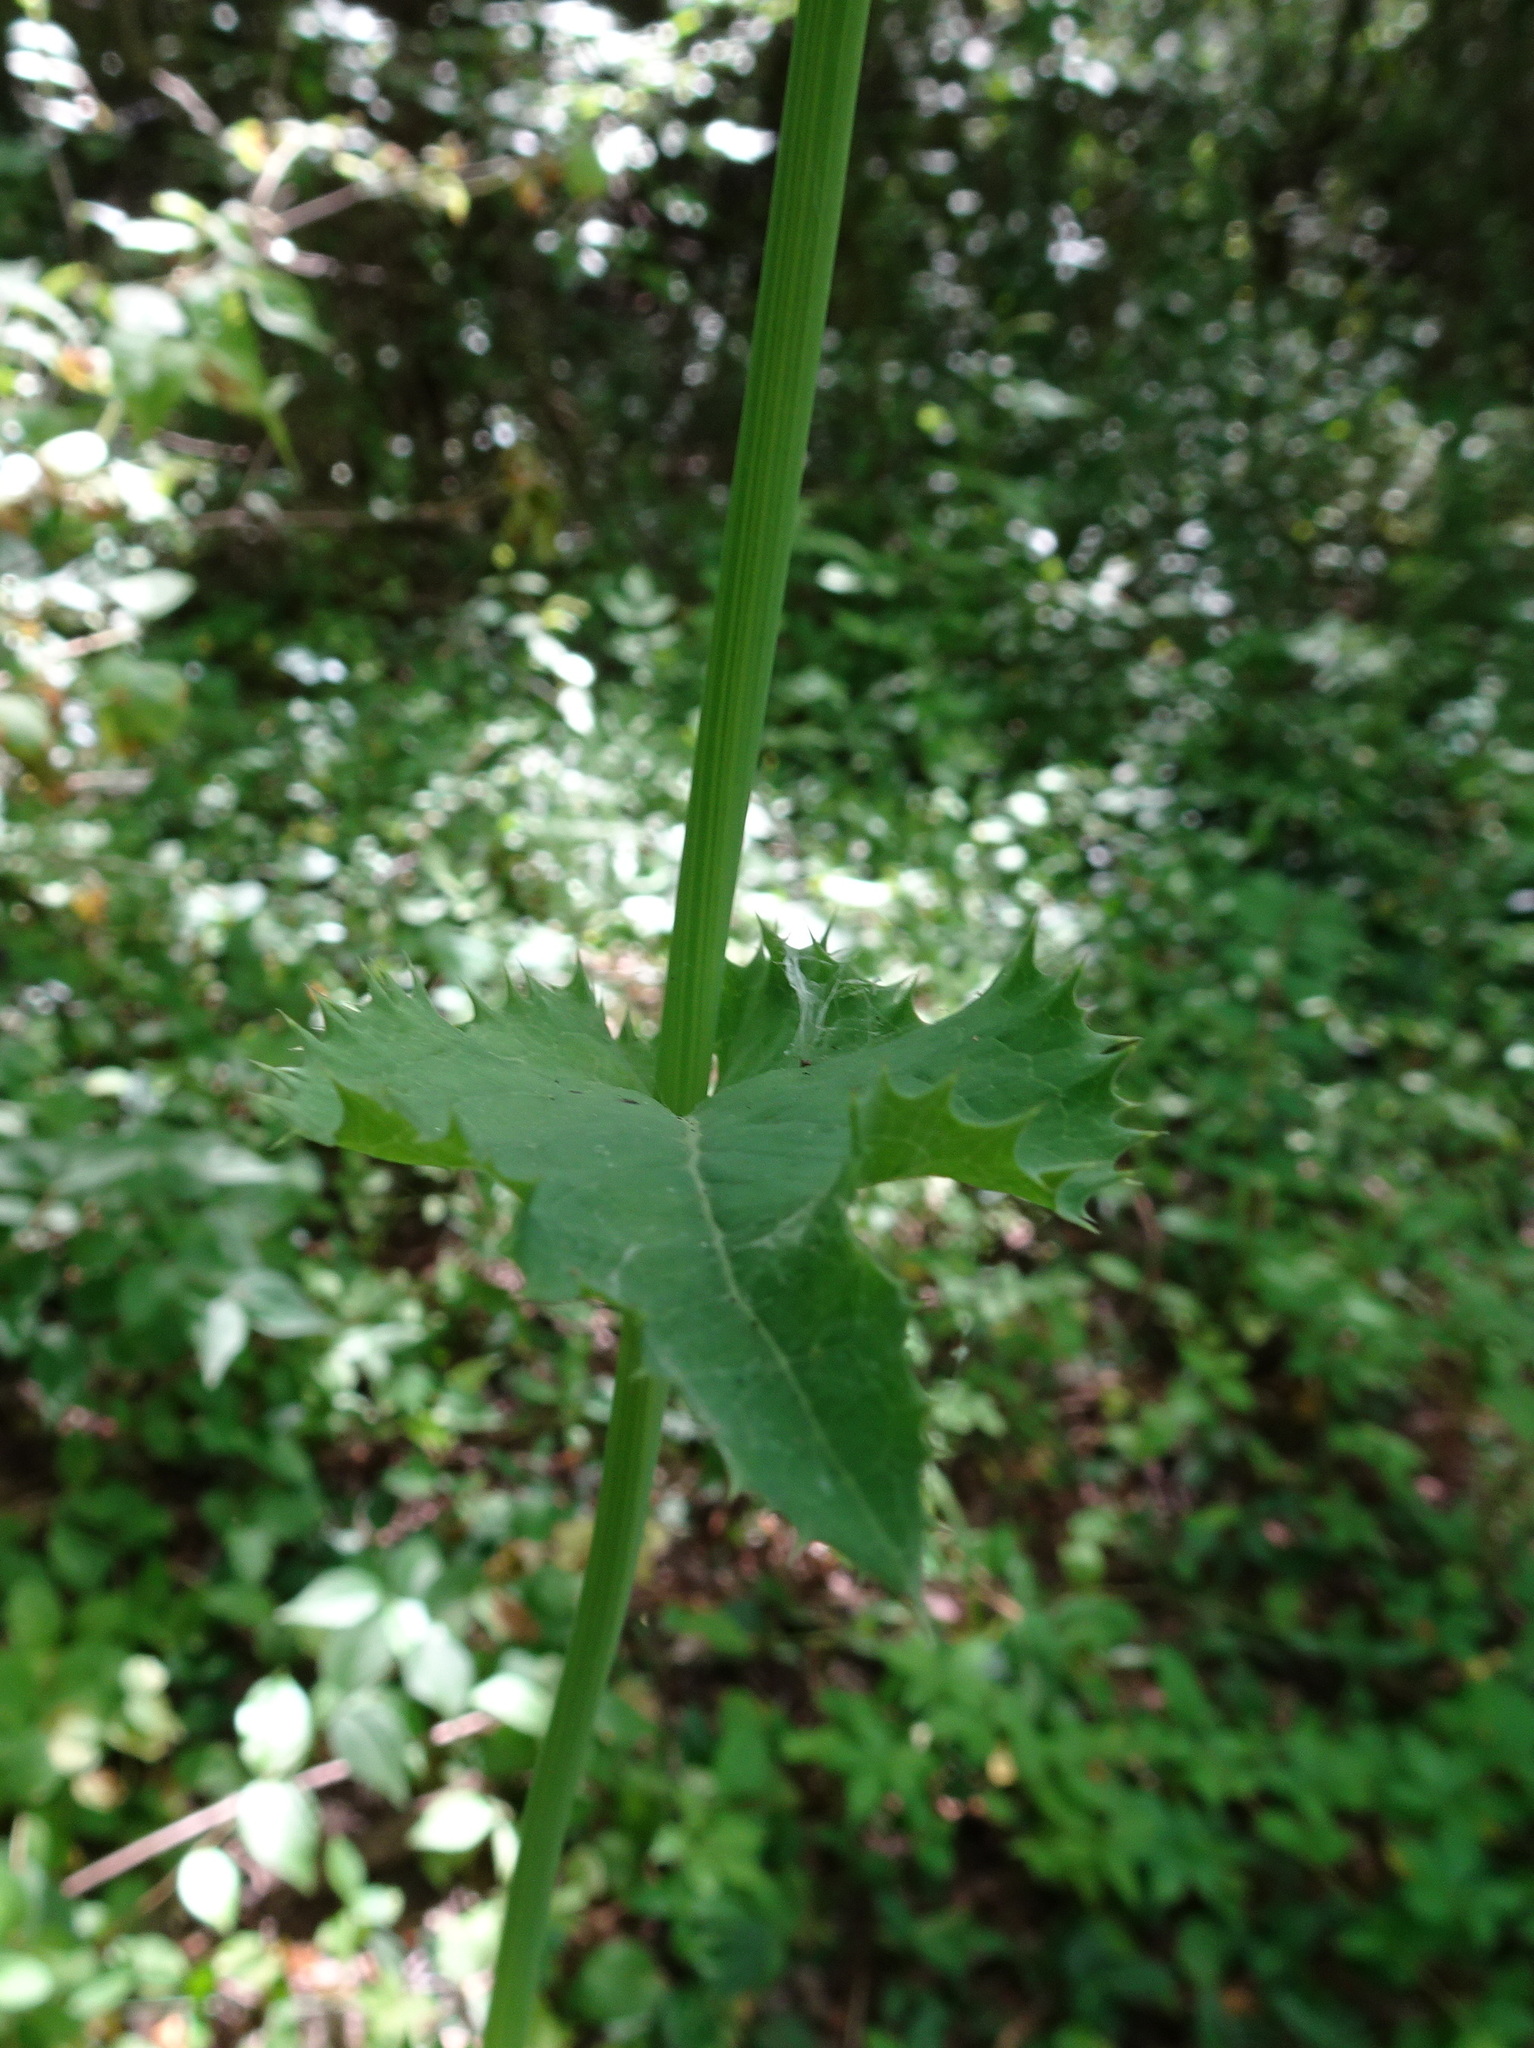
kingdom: Plantae
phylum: Tracheophyta
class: Magnoliopsida
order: Asterales
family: Asteraceae
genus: Sonchus
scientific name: Sonchus asper
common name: Prickly sow-thistle
